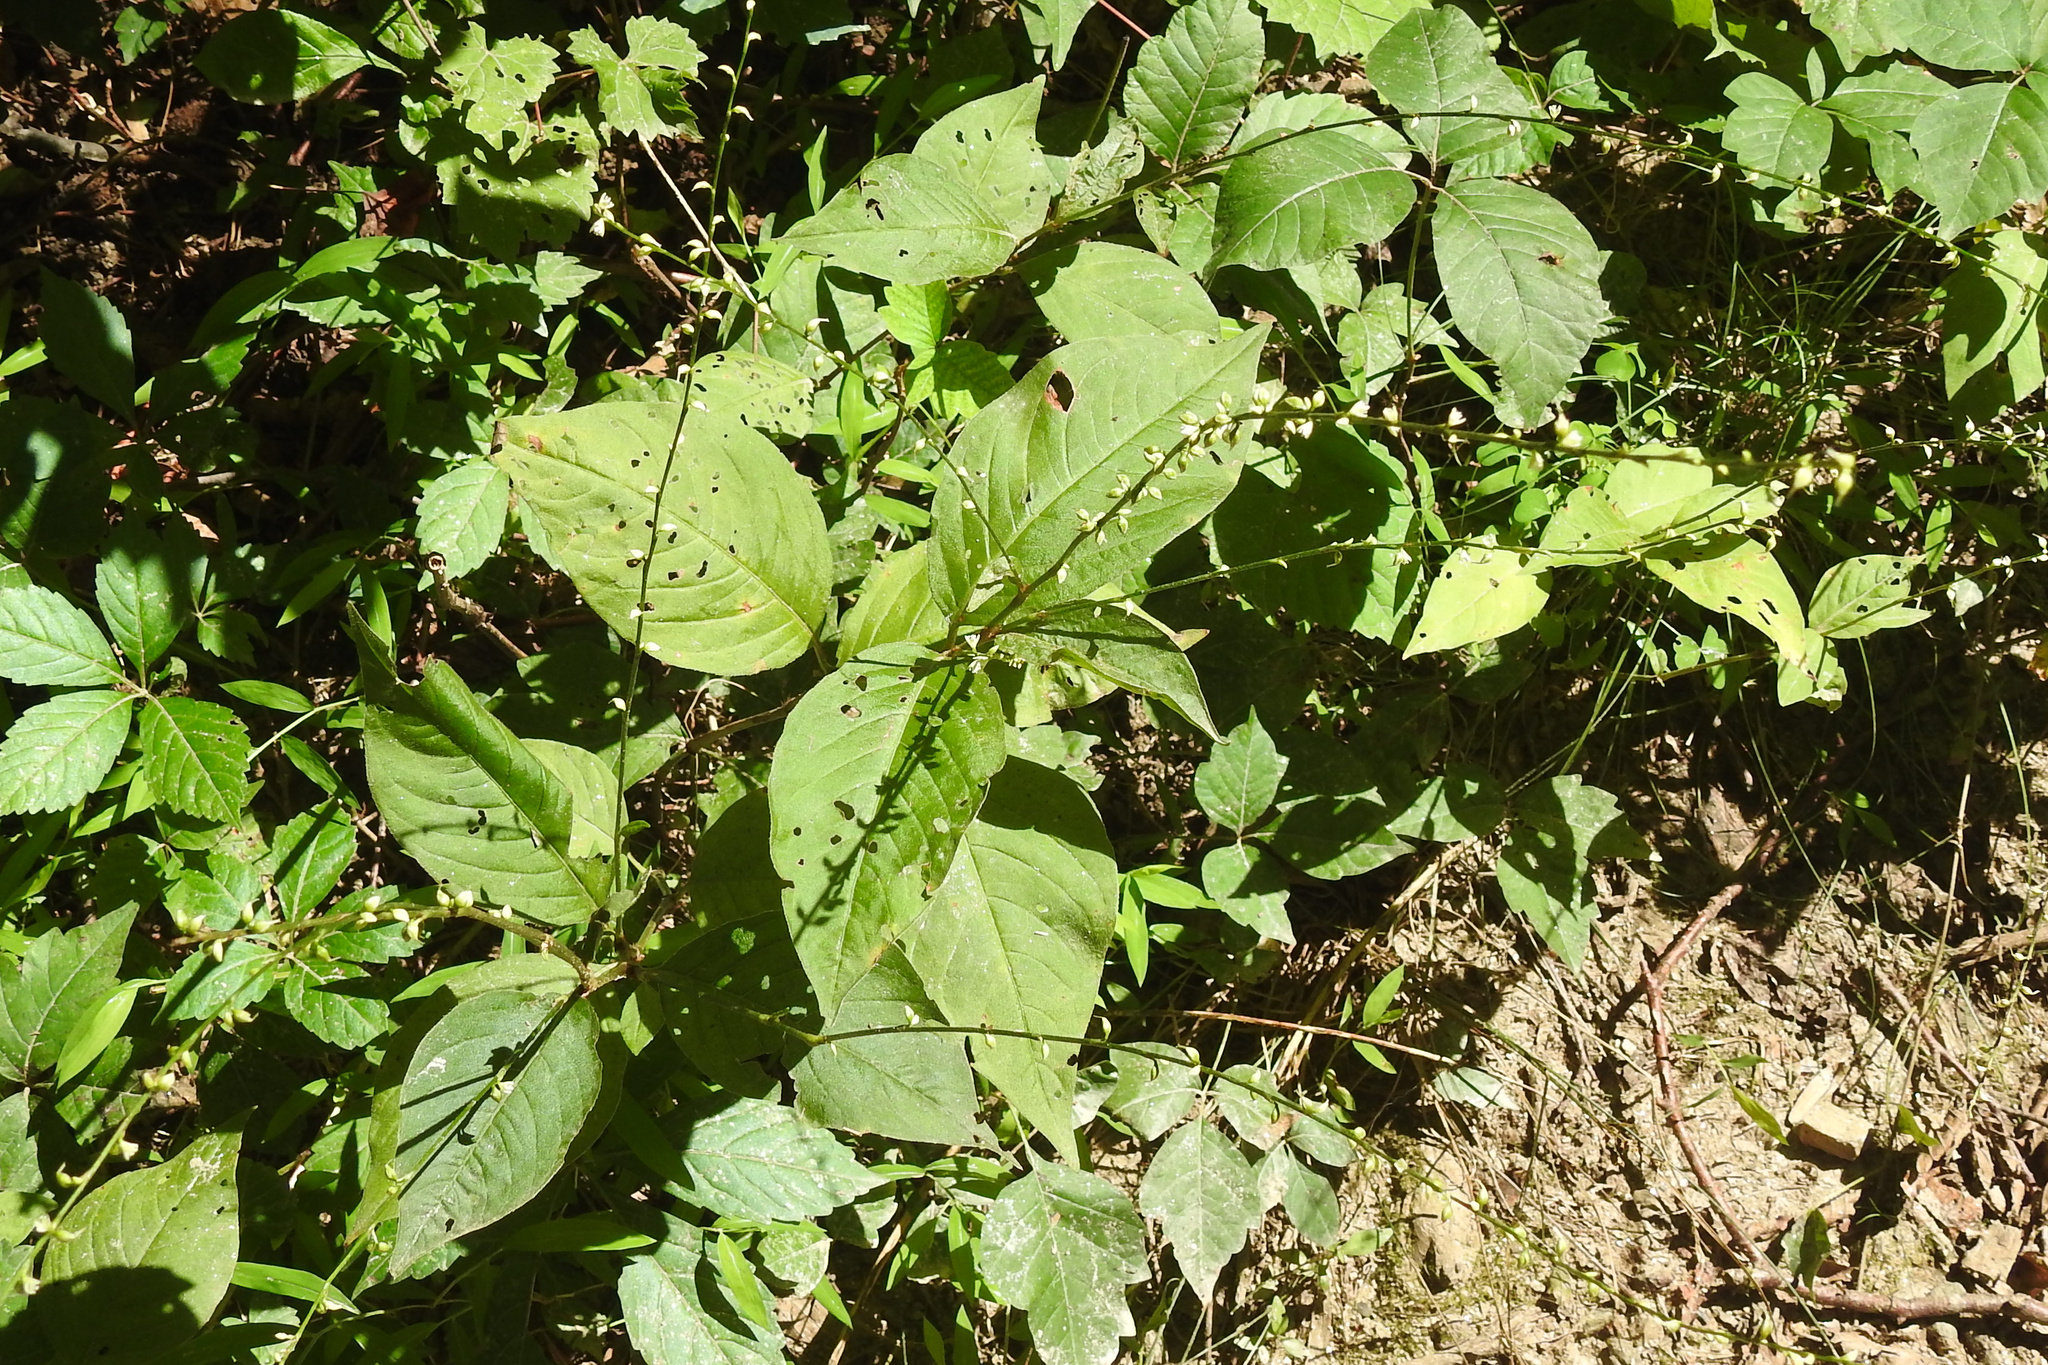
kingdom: Plantae
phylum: Tracheophyta
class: Magnoliopsida
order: Caryophyllales
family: Polygonaceae
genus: Persicaria
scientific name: Persicaria virginiana
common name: Jumpseed
